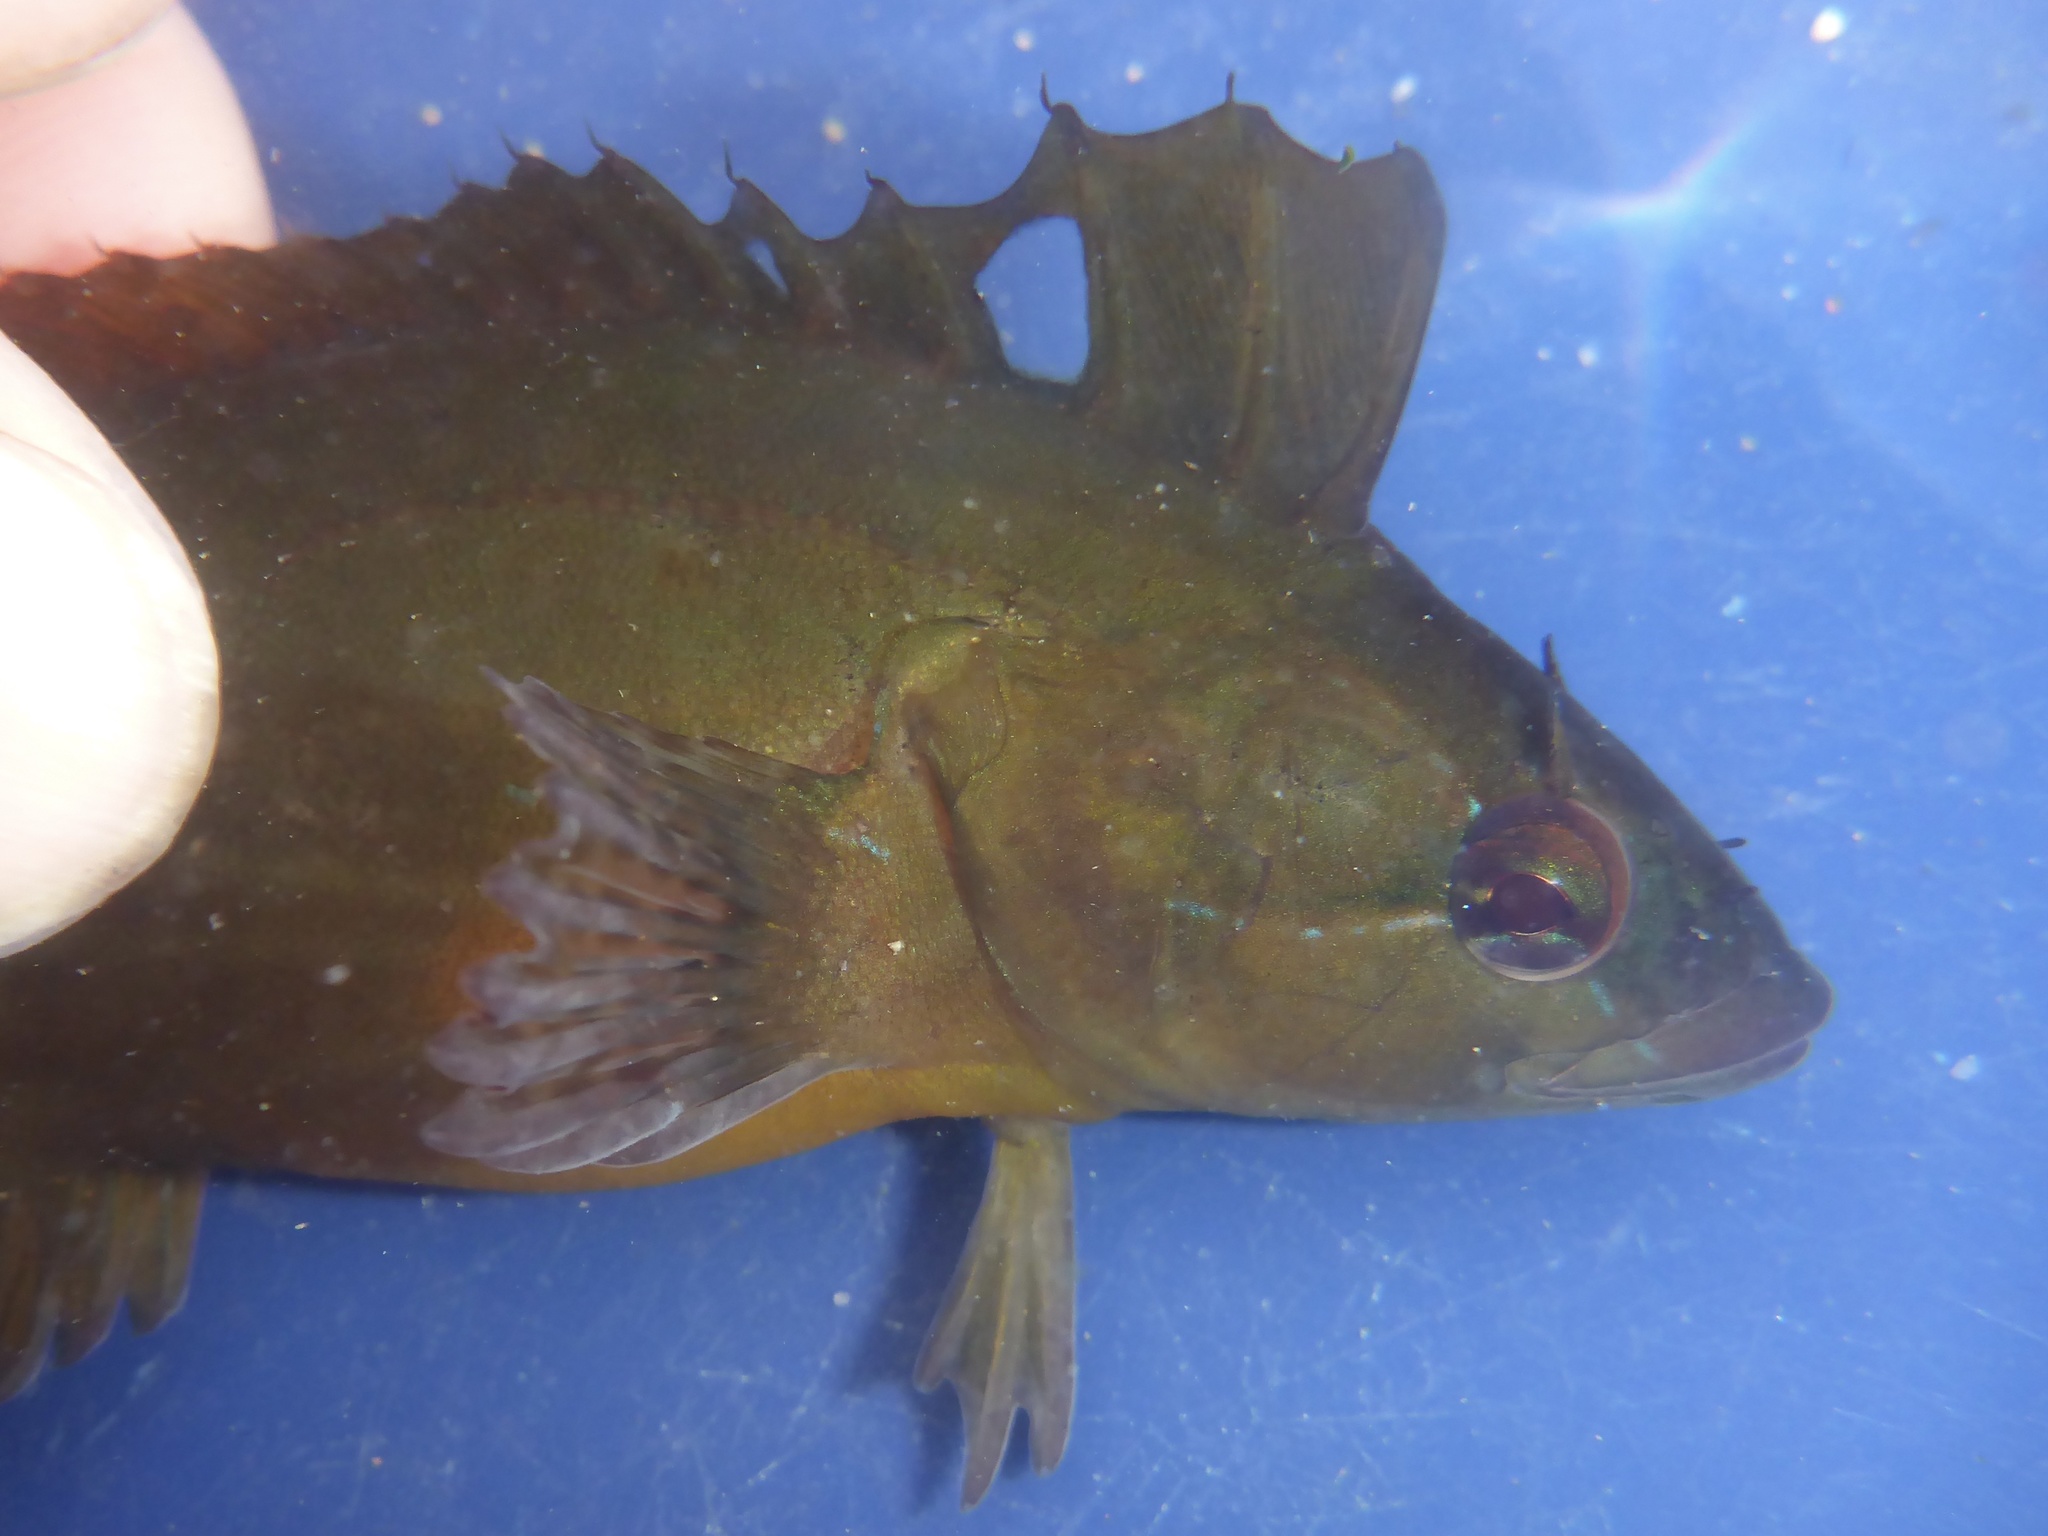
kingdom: Animalia
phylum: Chordata
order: Perciformes
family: Clinidae
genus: Gibbonsia
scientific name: Gibbonsia metzi
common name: Striped kelpfish
